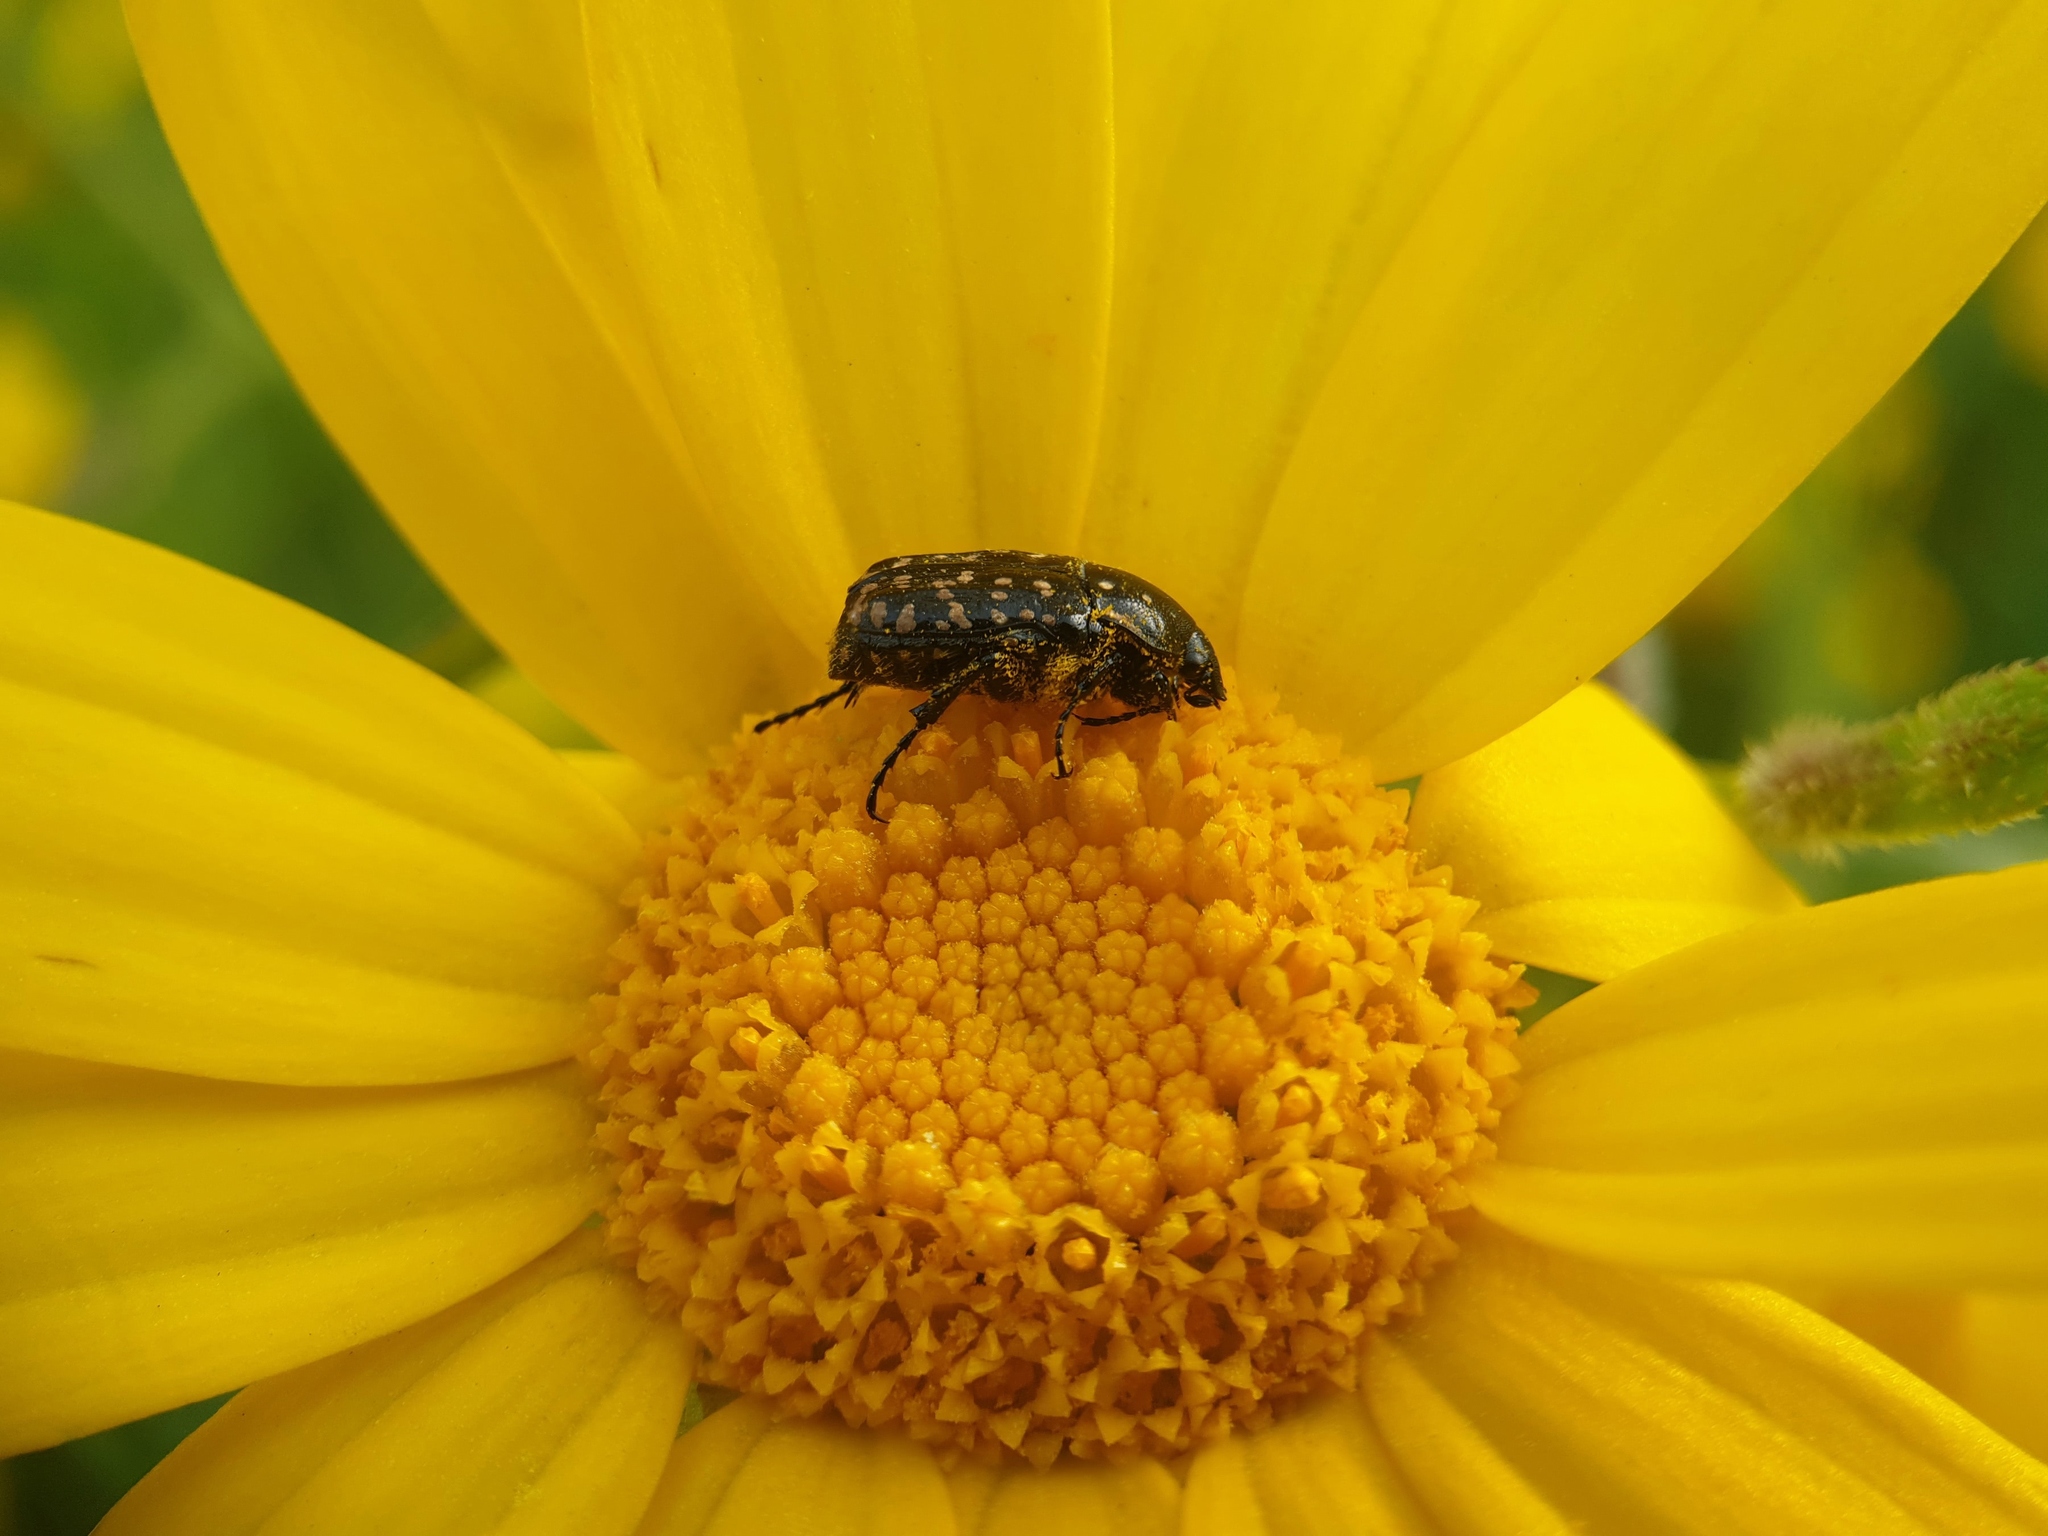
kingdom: Animalia
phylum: Arthropoda
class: Insecta
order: Coleoptera
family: Scarabaeidae
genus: Oxythyrea
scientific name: Oxythyrea noemi
